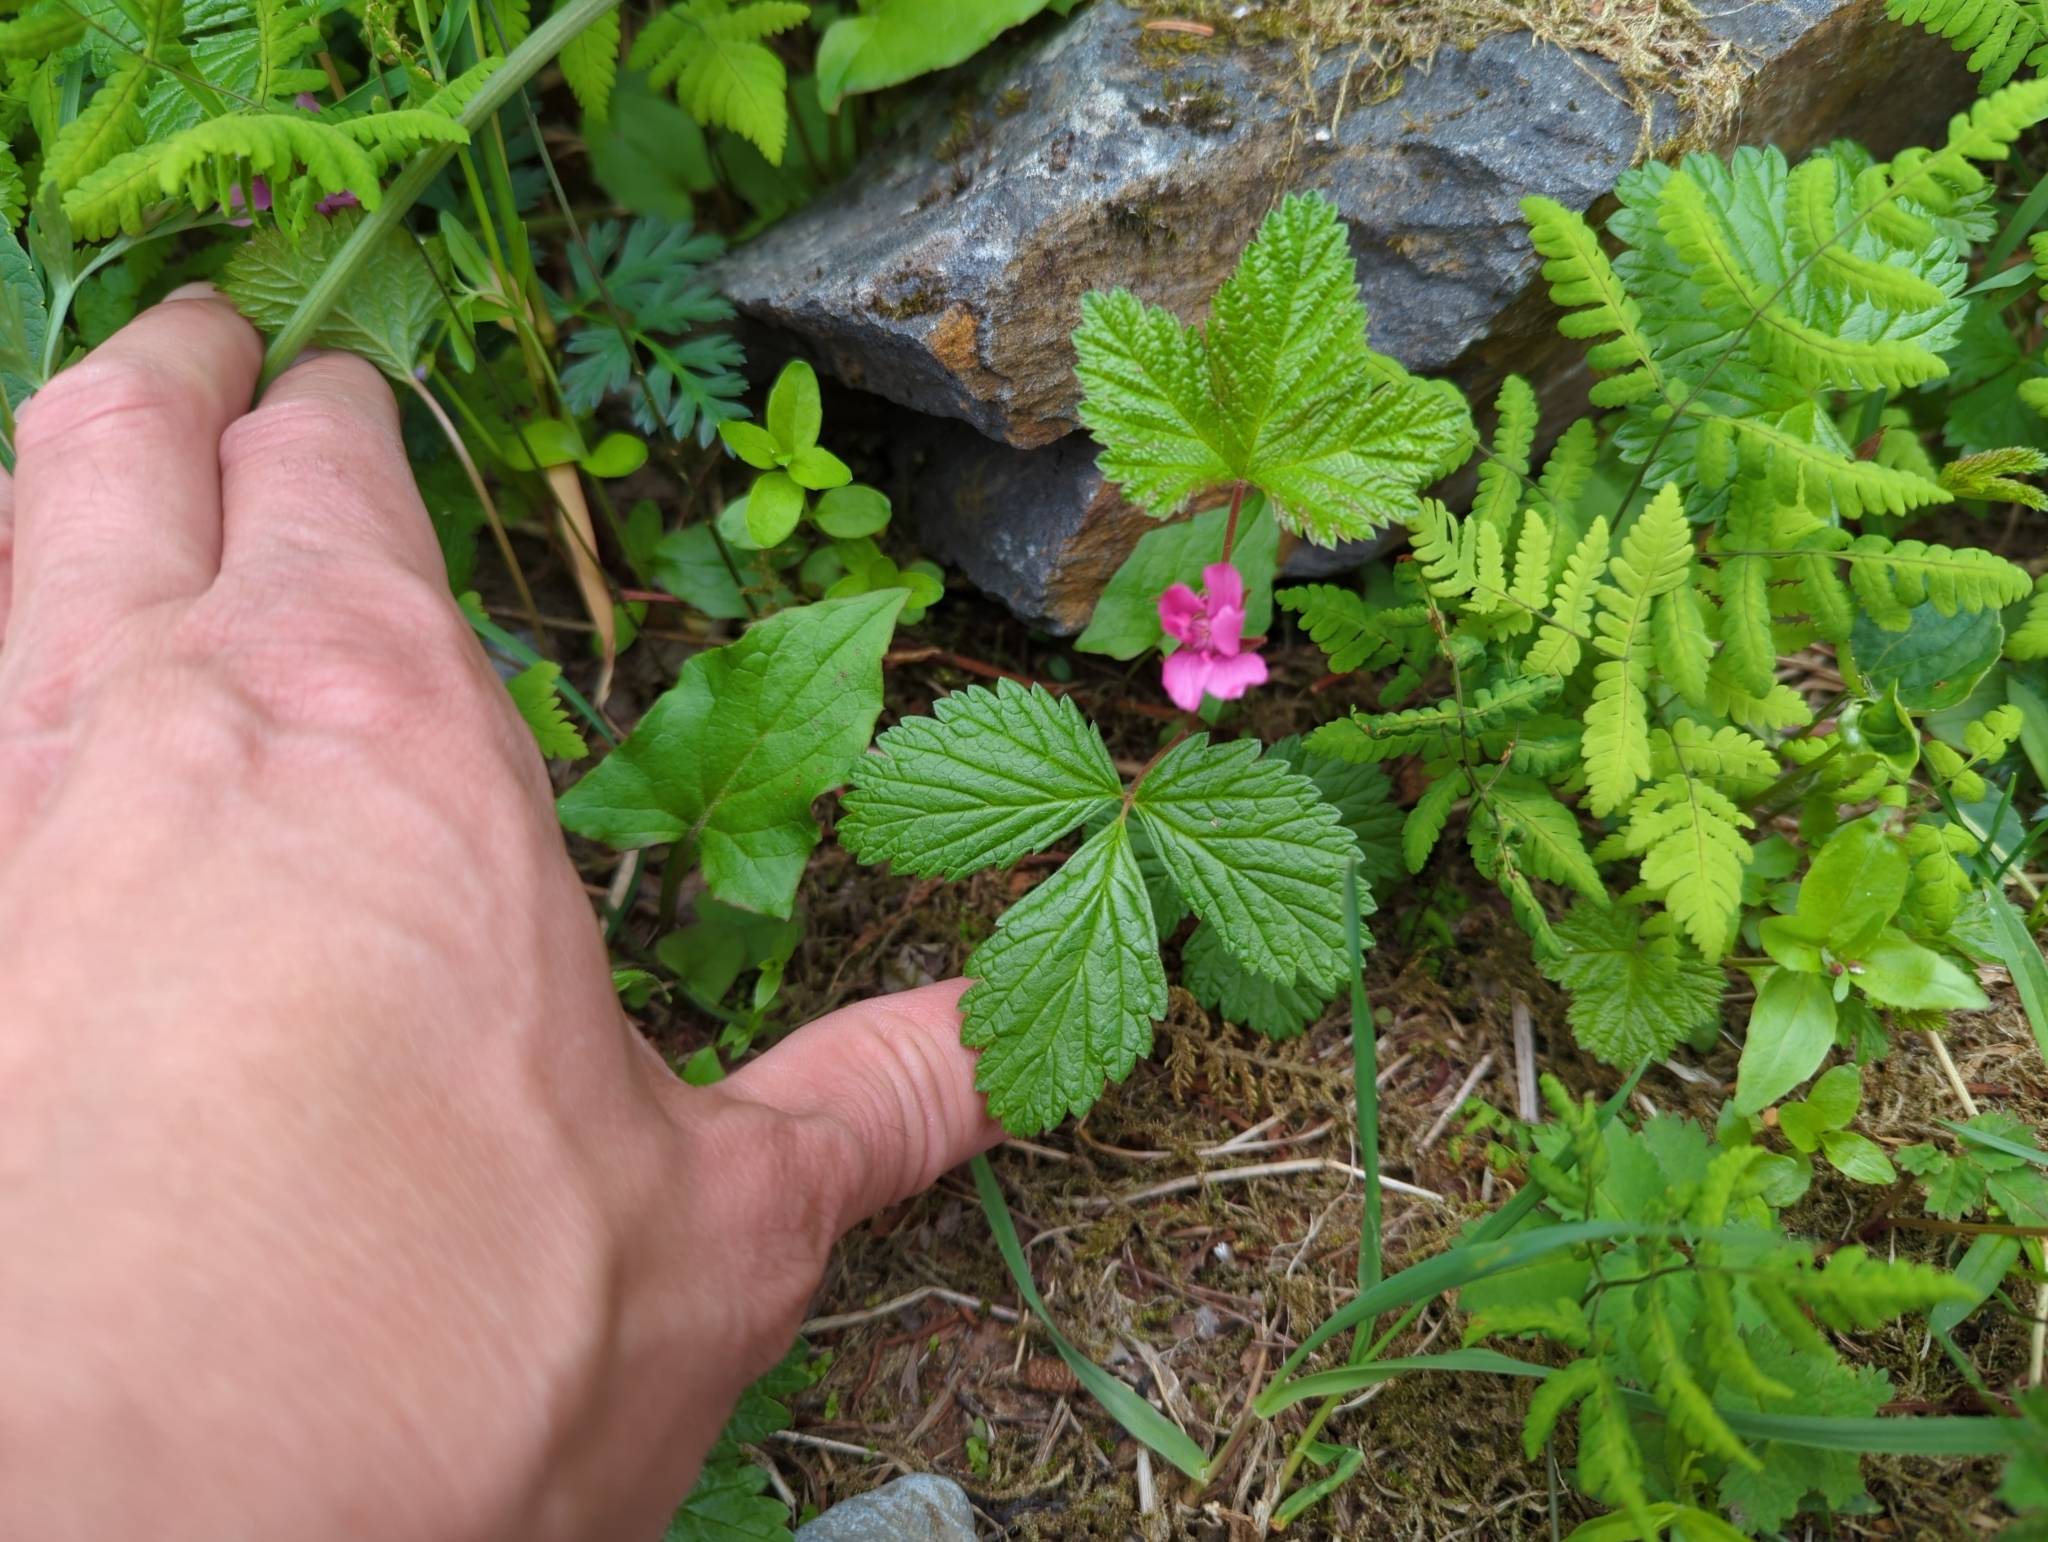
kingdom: Plantae
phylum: Tracheophyta
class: Magnoliopsida
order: Rosales
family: Rosaceae
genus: Rubus
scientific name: Rubus arcticus
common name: Arctic bramble
